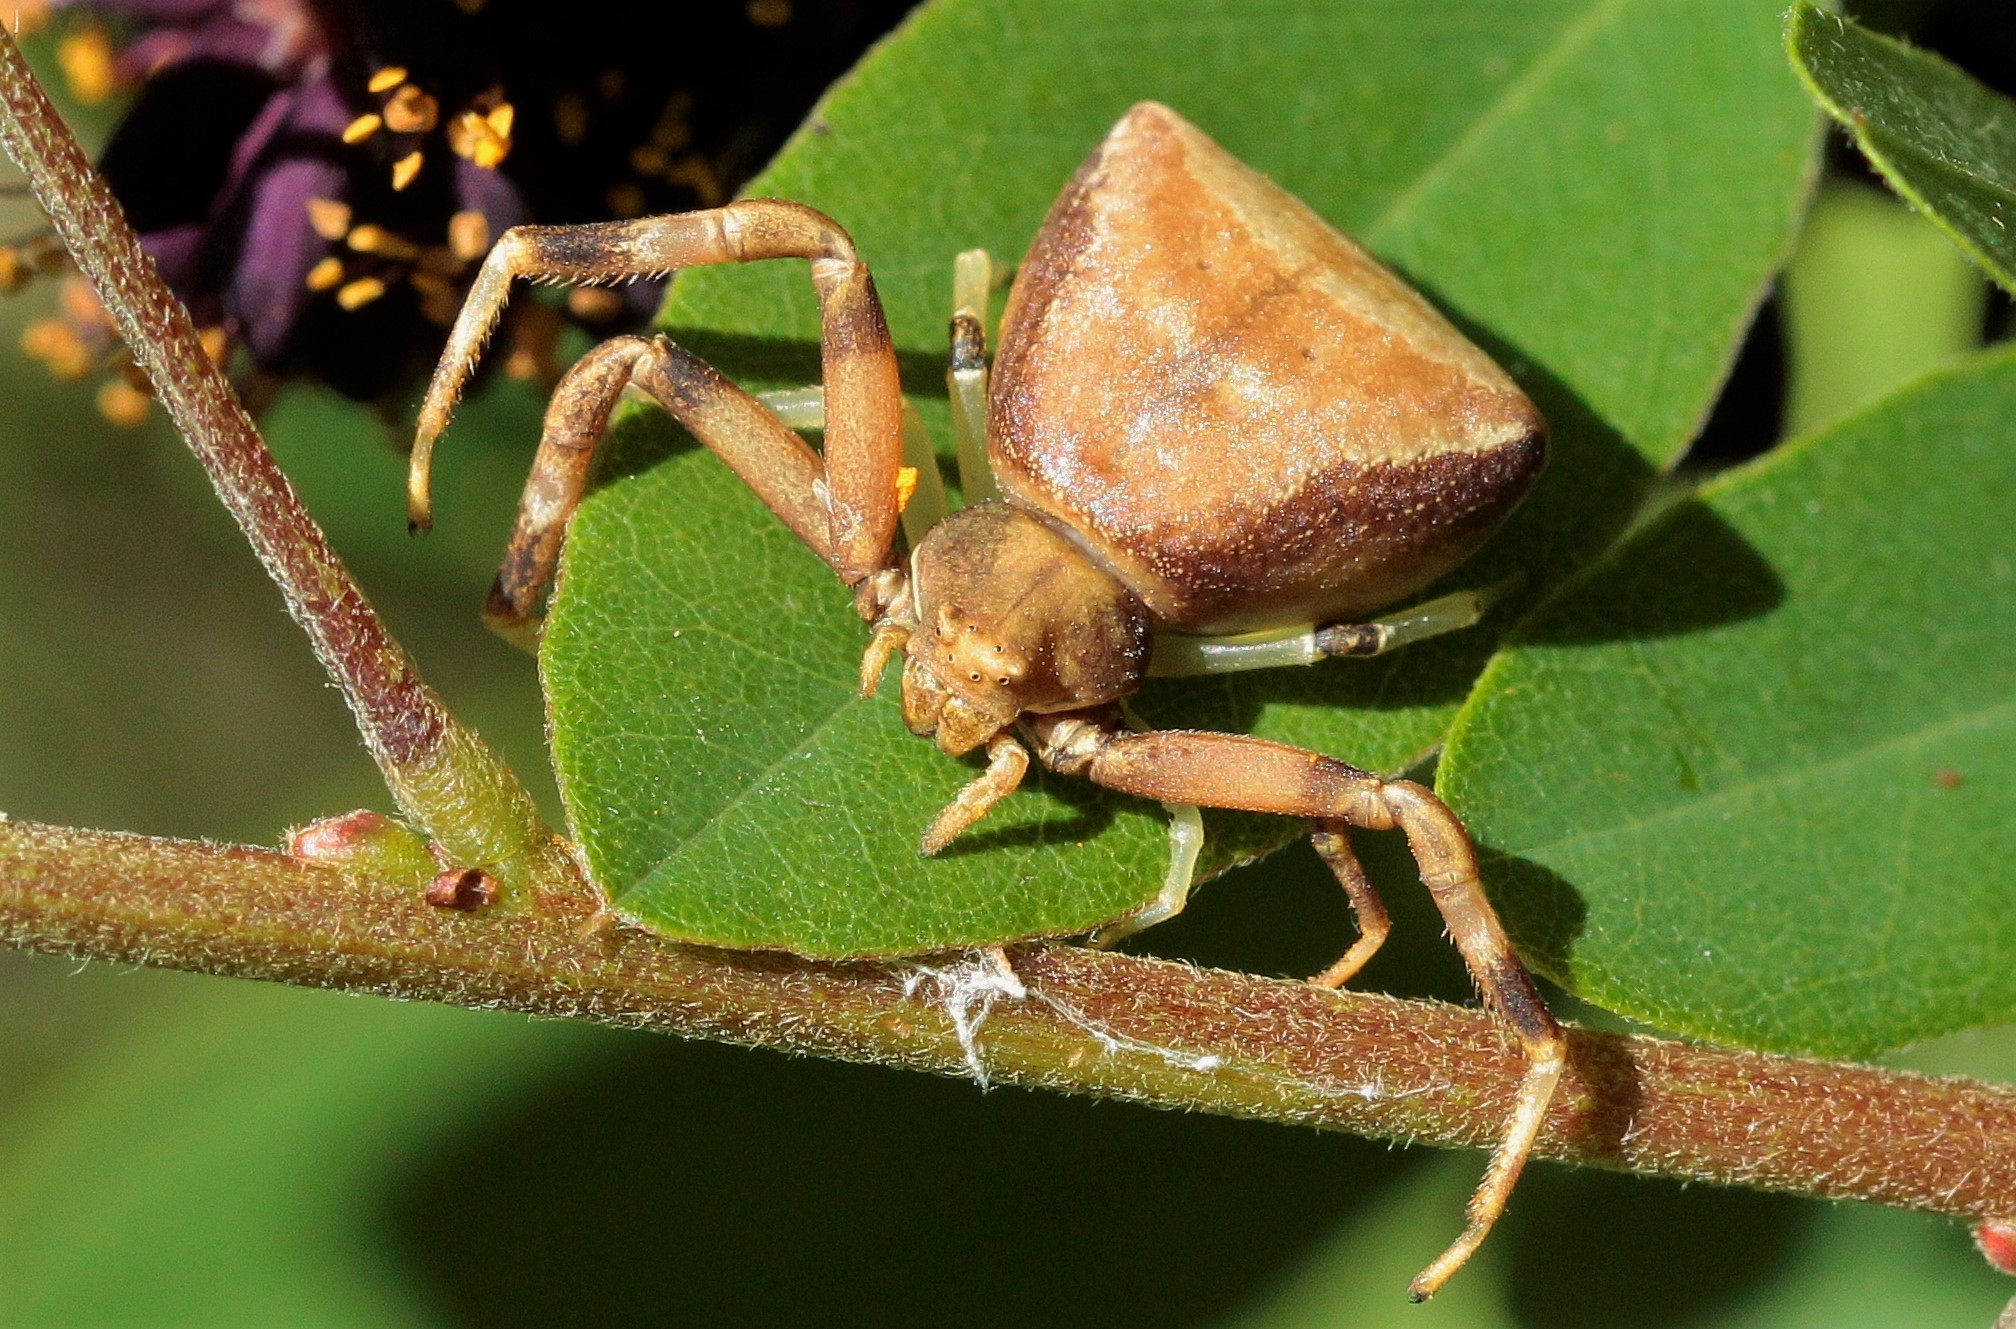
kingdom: Animalia
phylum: Arthropoda
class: Arachnida
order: Araneae
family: Thomisidae
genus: Pistius
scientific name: Pistius truncatus
